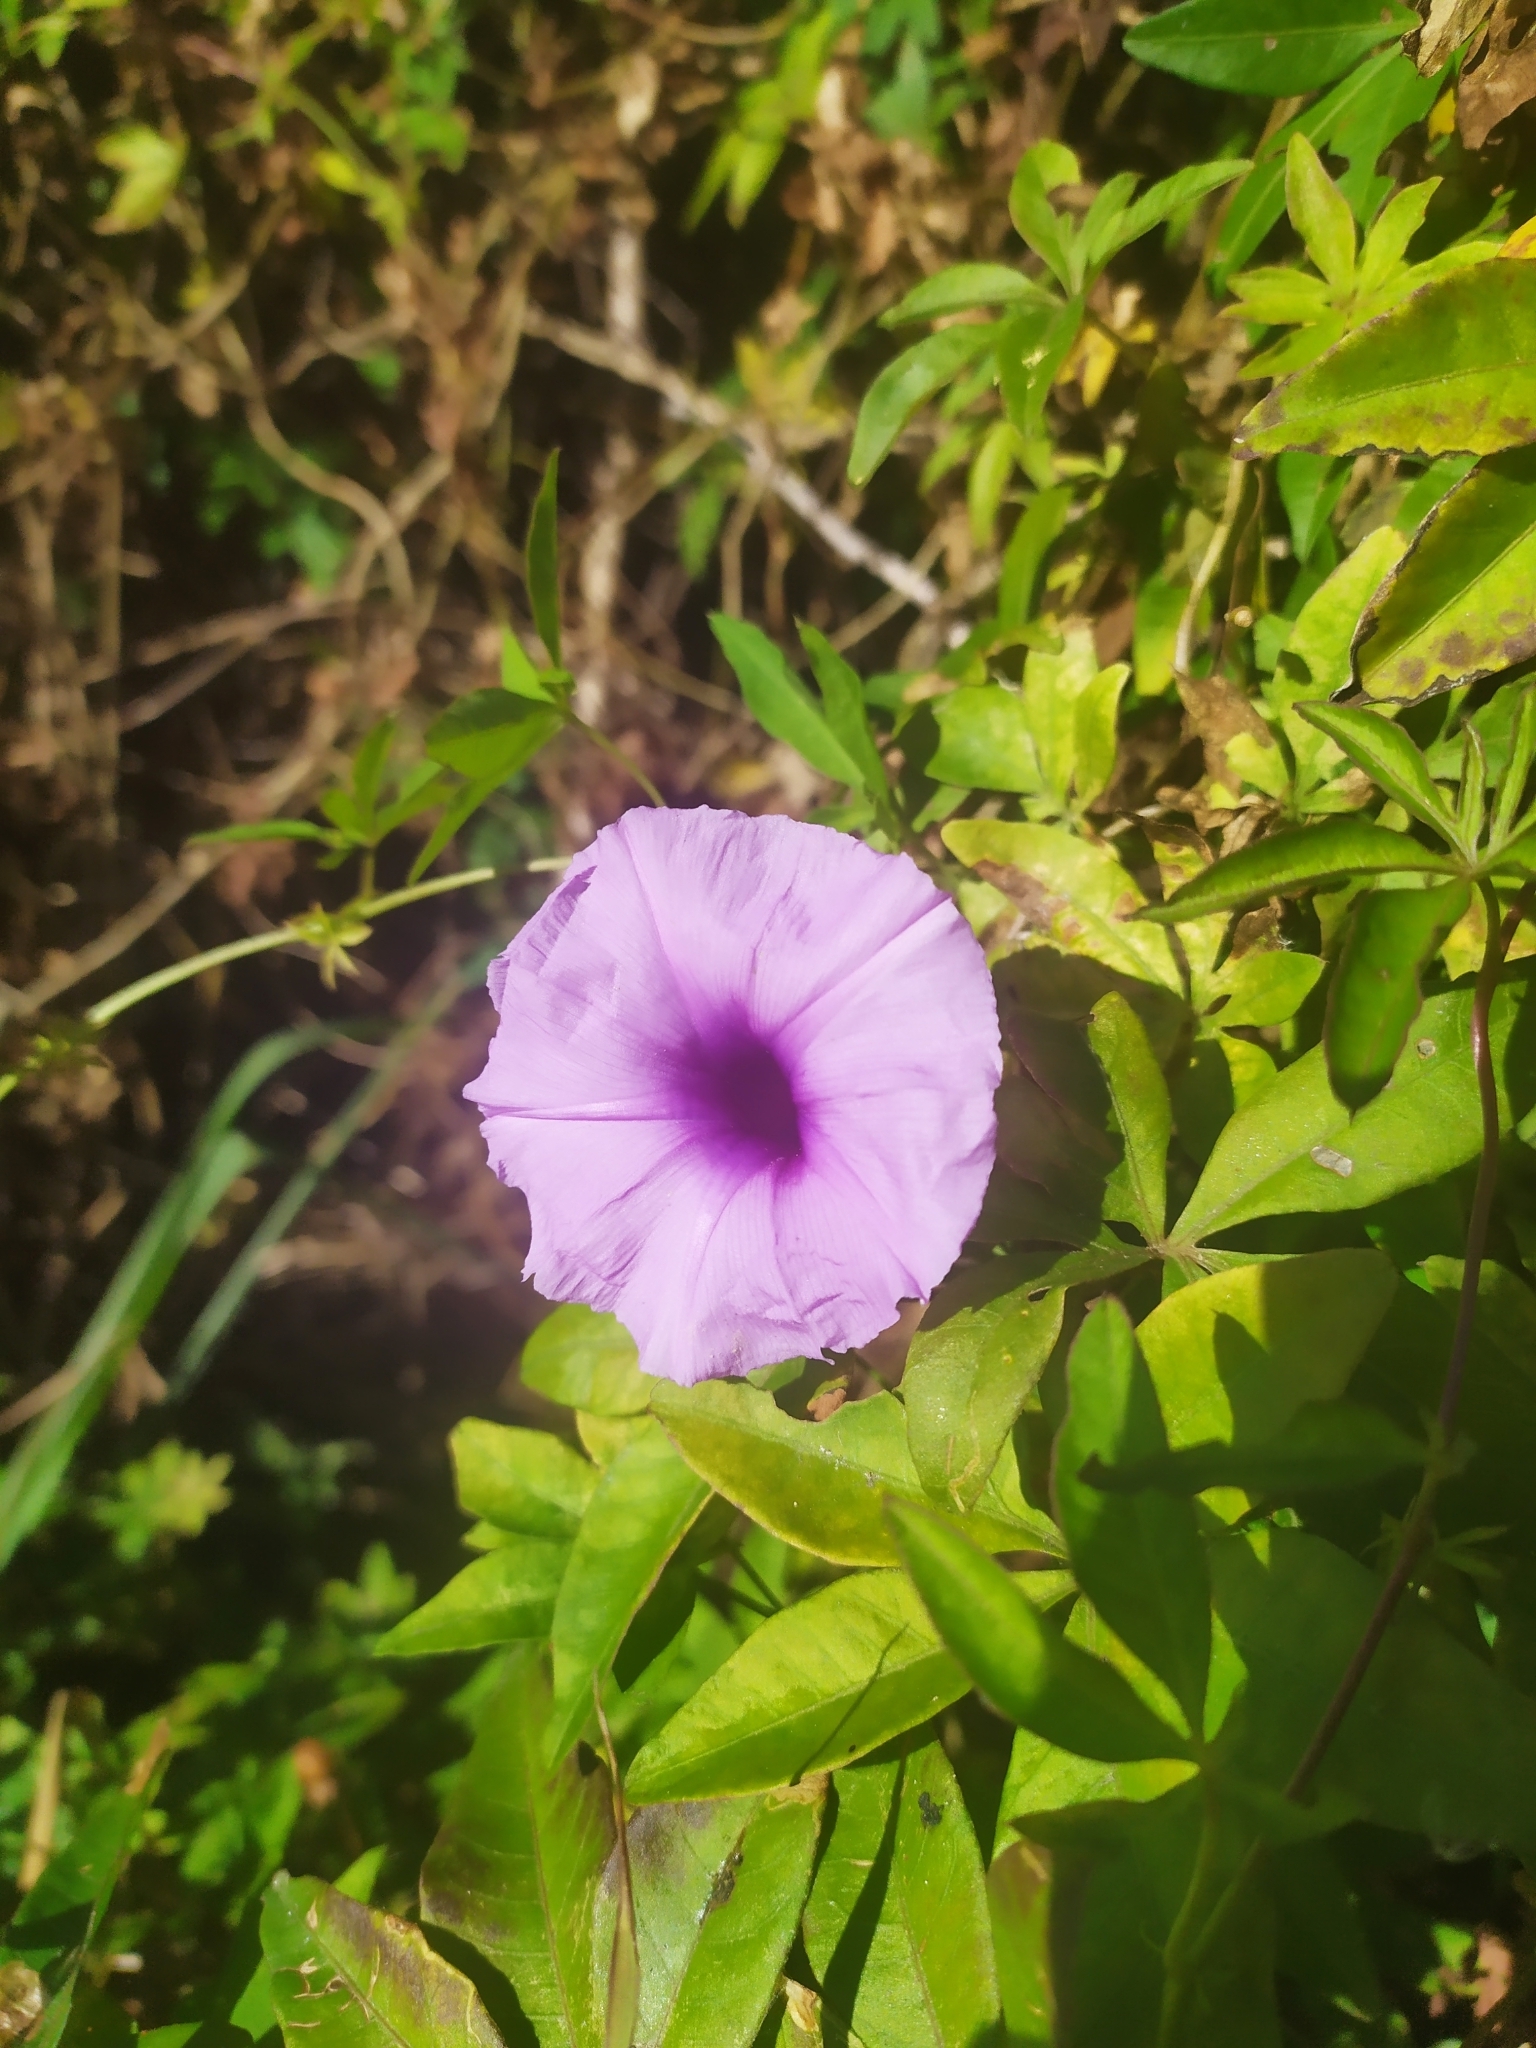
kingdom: Plantae
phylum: Tracheophyta
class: Magnoliopsida
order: Solanales
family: Convolvulaceae
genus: Ipomoea
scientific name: Ipomoea cairica
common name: Mile a minute vine
